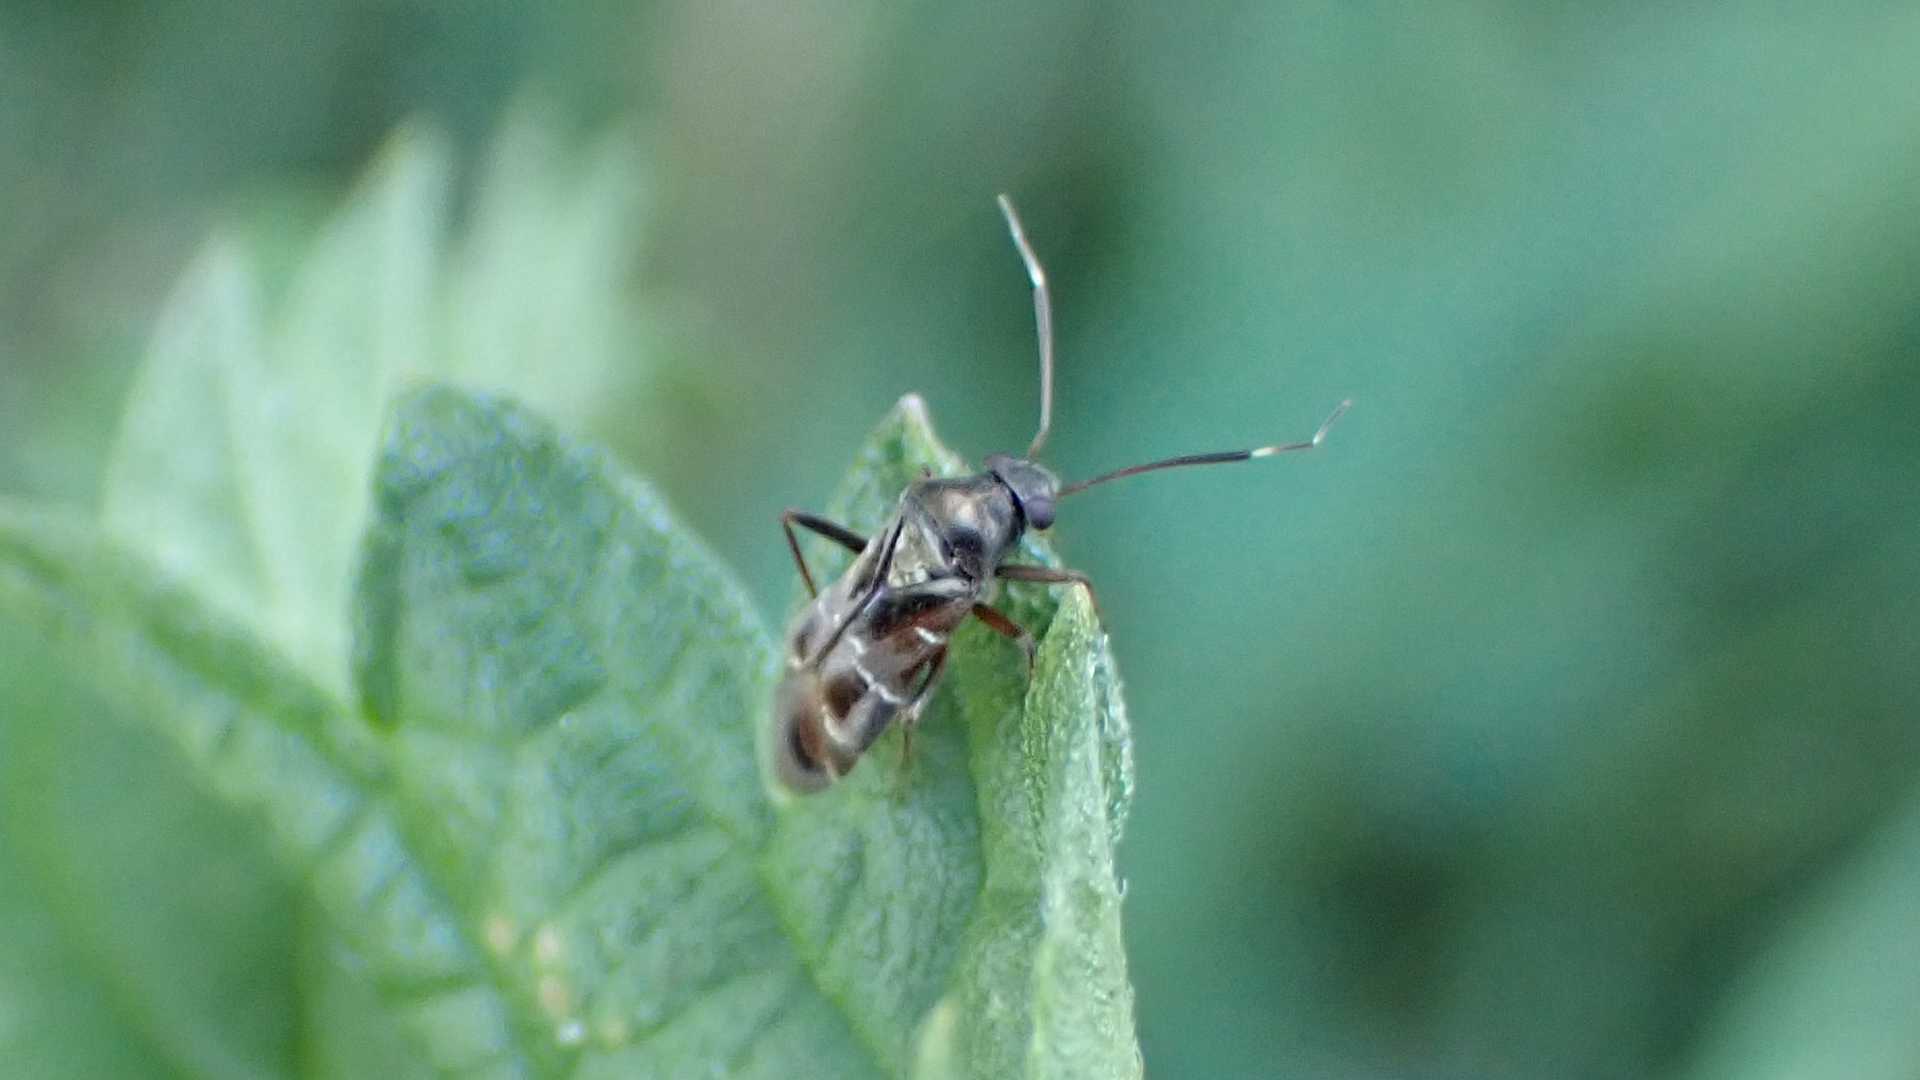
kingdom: Animalia
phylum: Arthropoda
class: Insecta
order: Hemiptera
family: Miridae
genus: Pilophorus
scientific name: Pilophorus clavatus
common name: Plant bug
